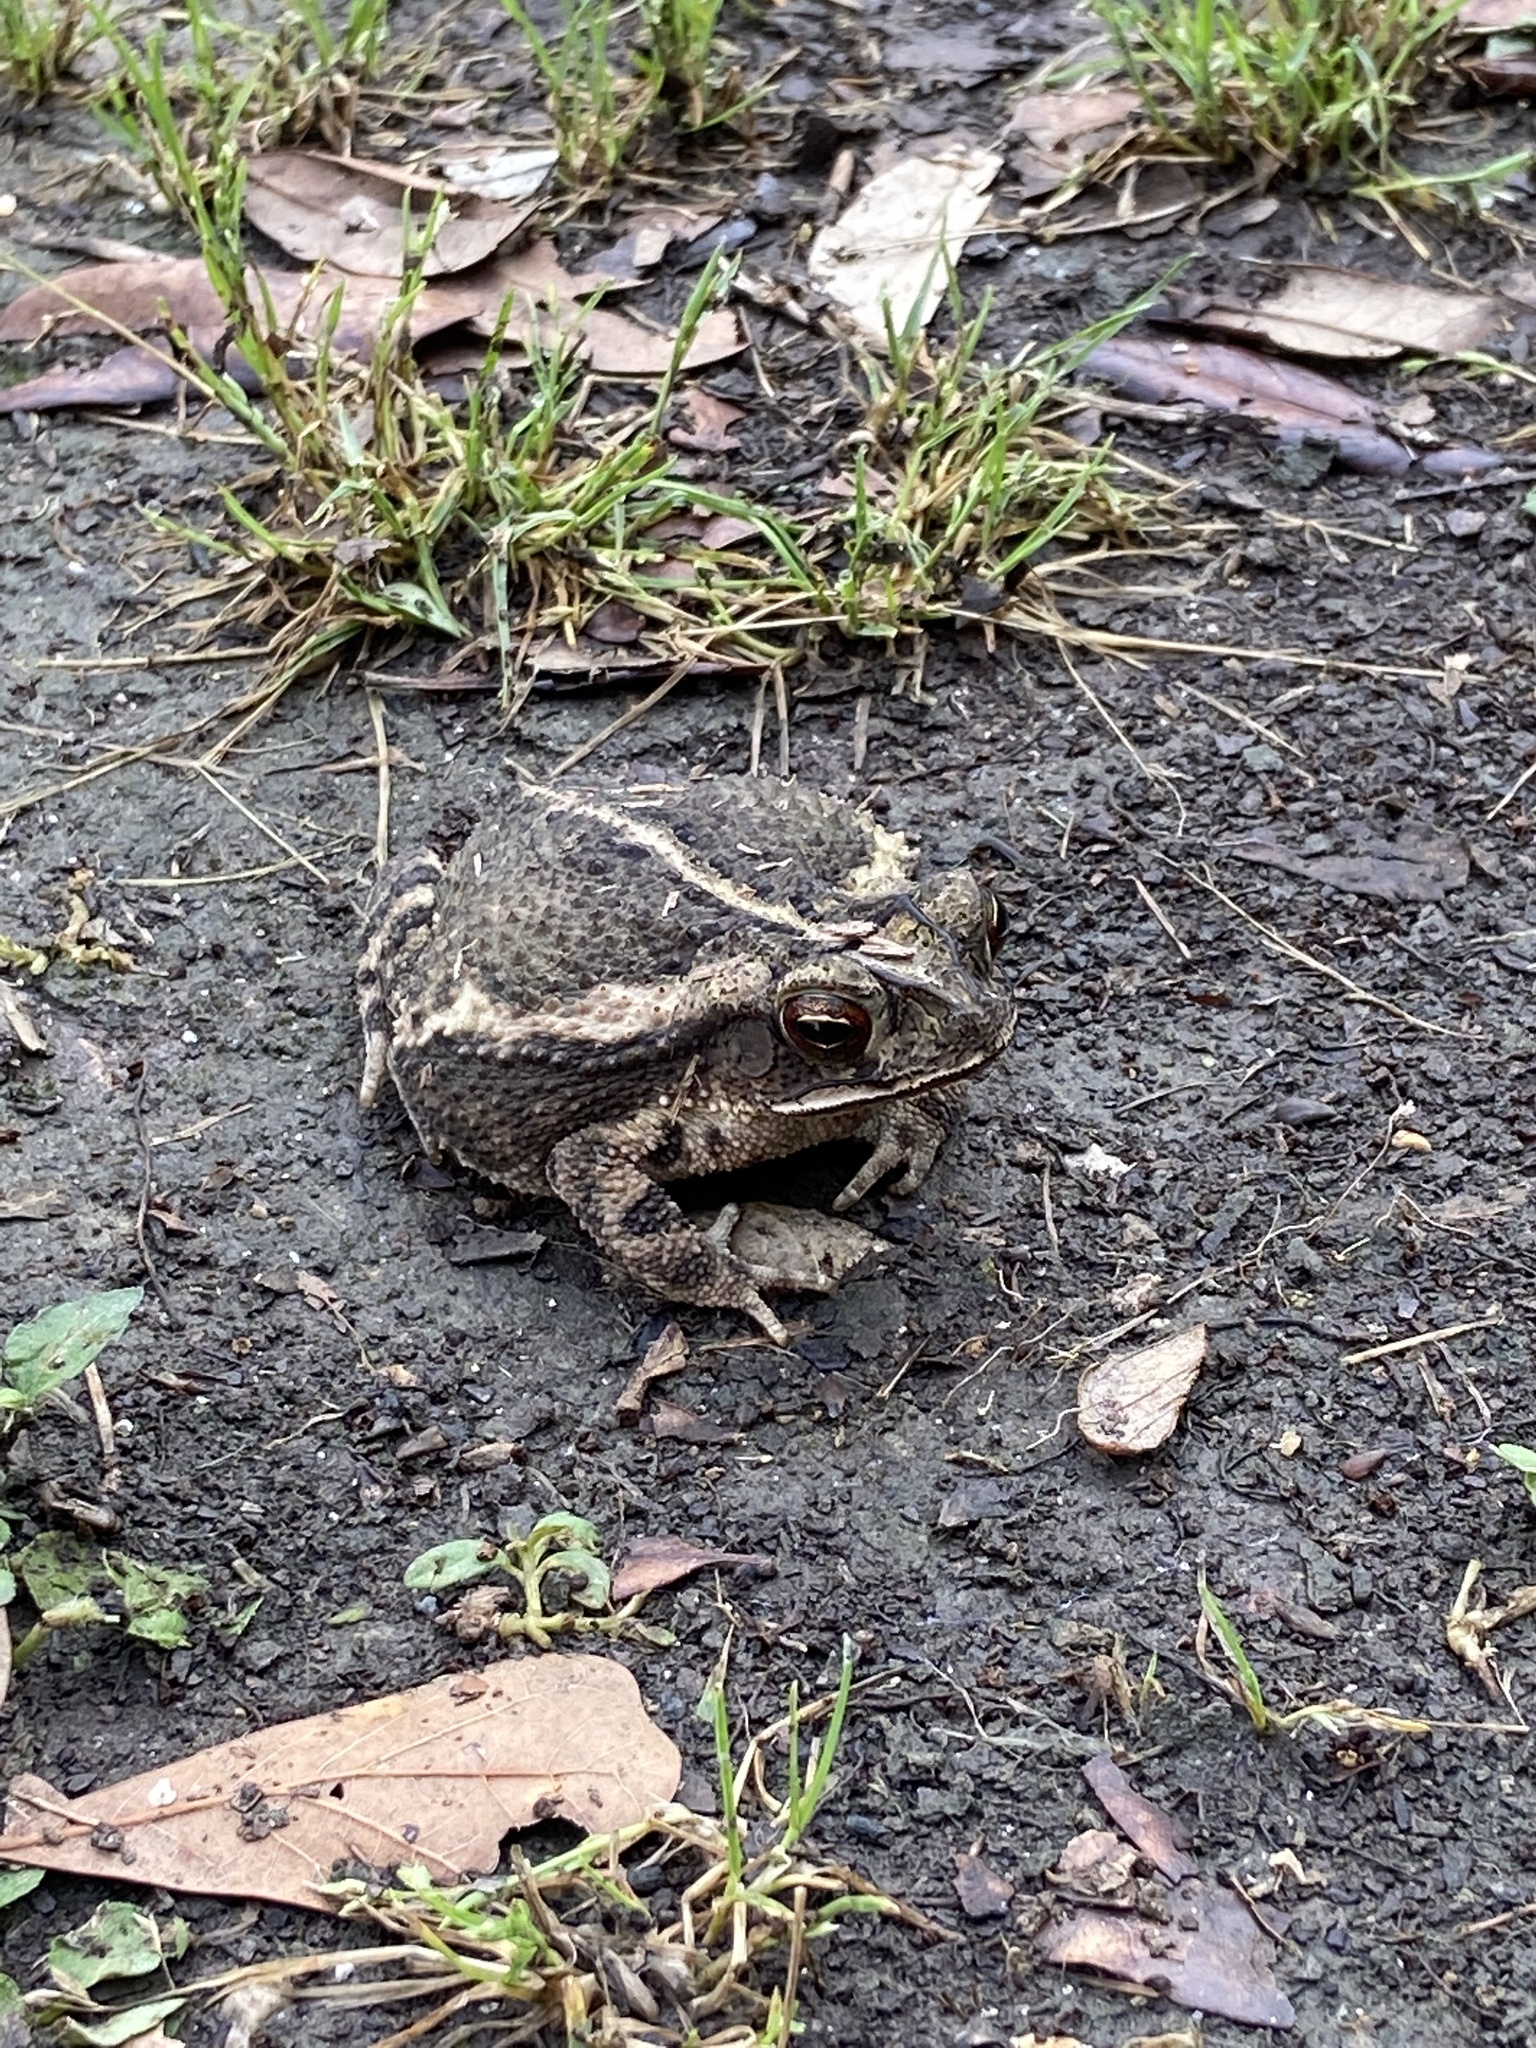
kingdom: Animalia
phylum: Chordata
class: Amphibia
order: Anura
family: Bufonidae
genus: Incilius
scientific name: Incilius nebulifer
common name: Gulf coast toad
